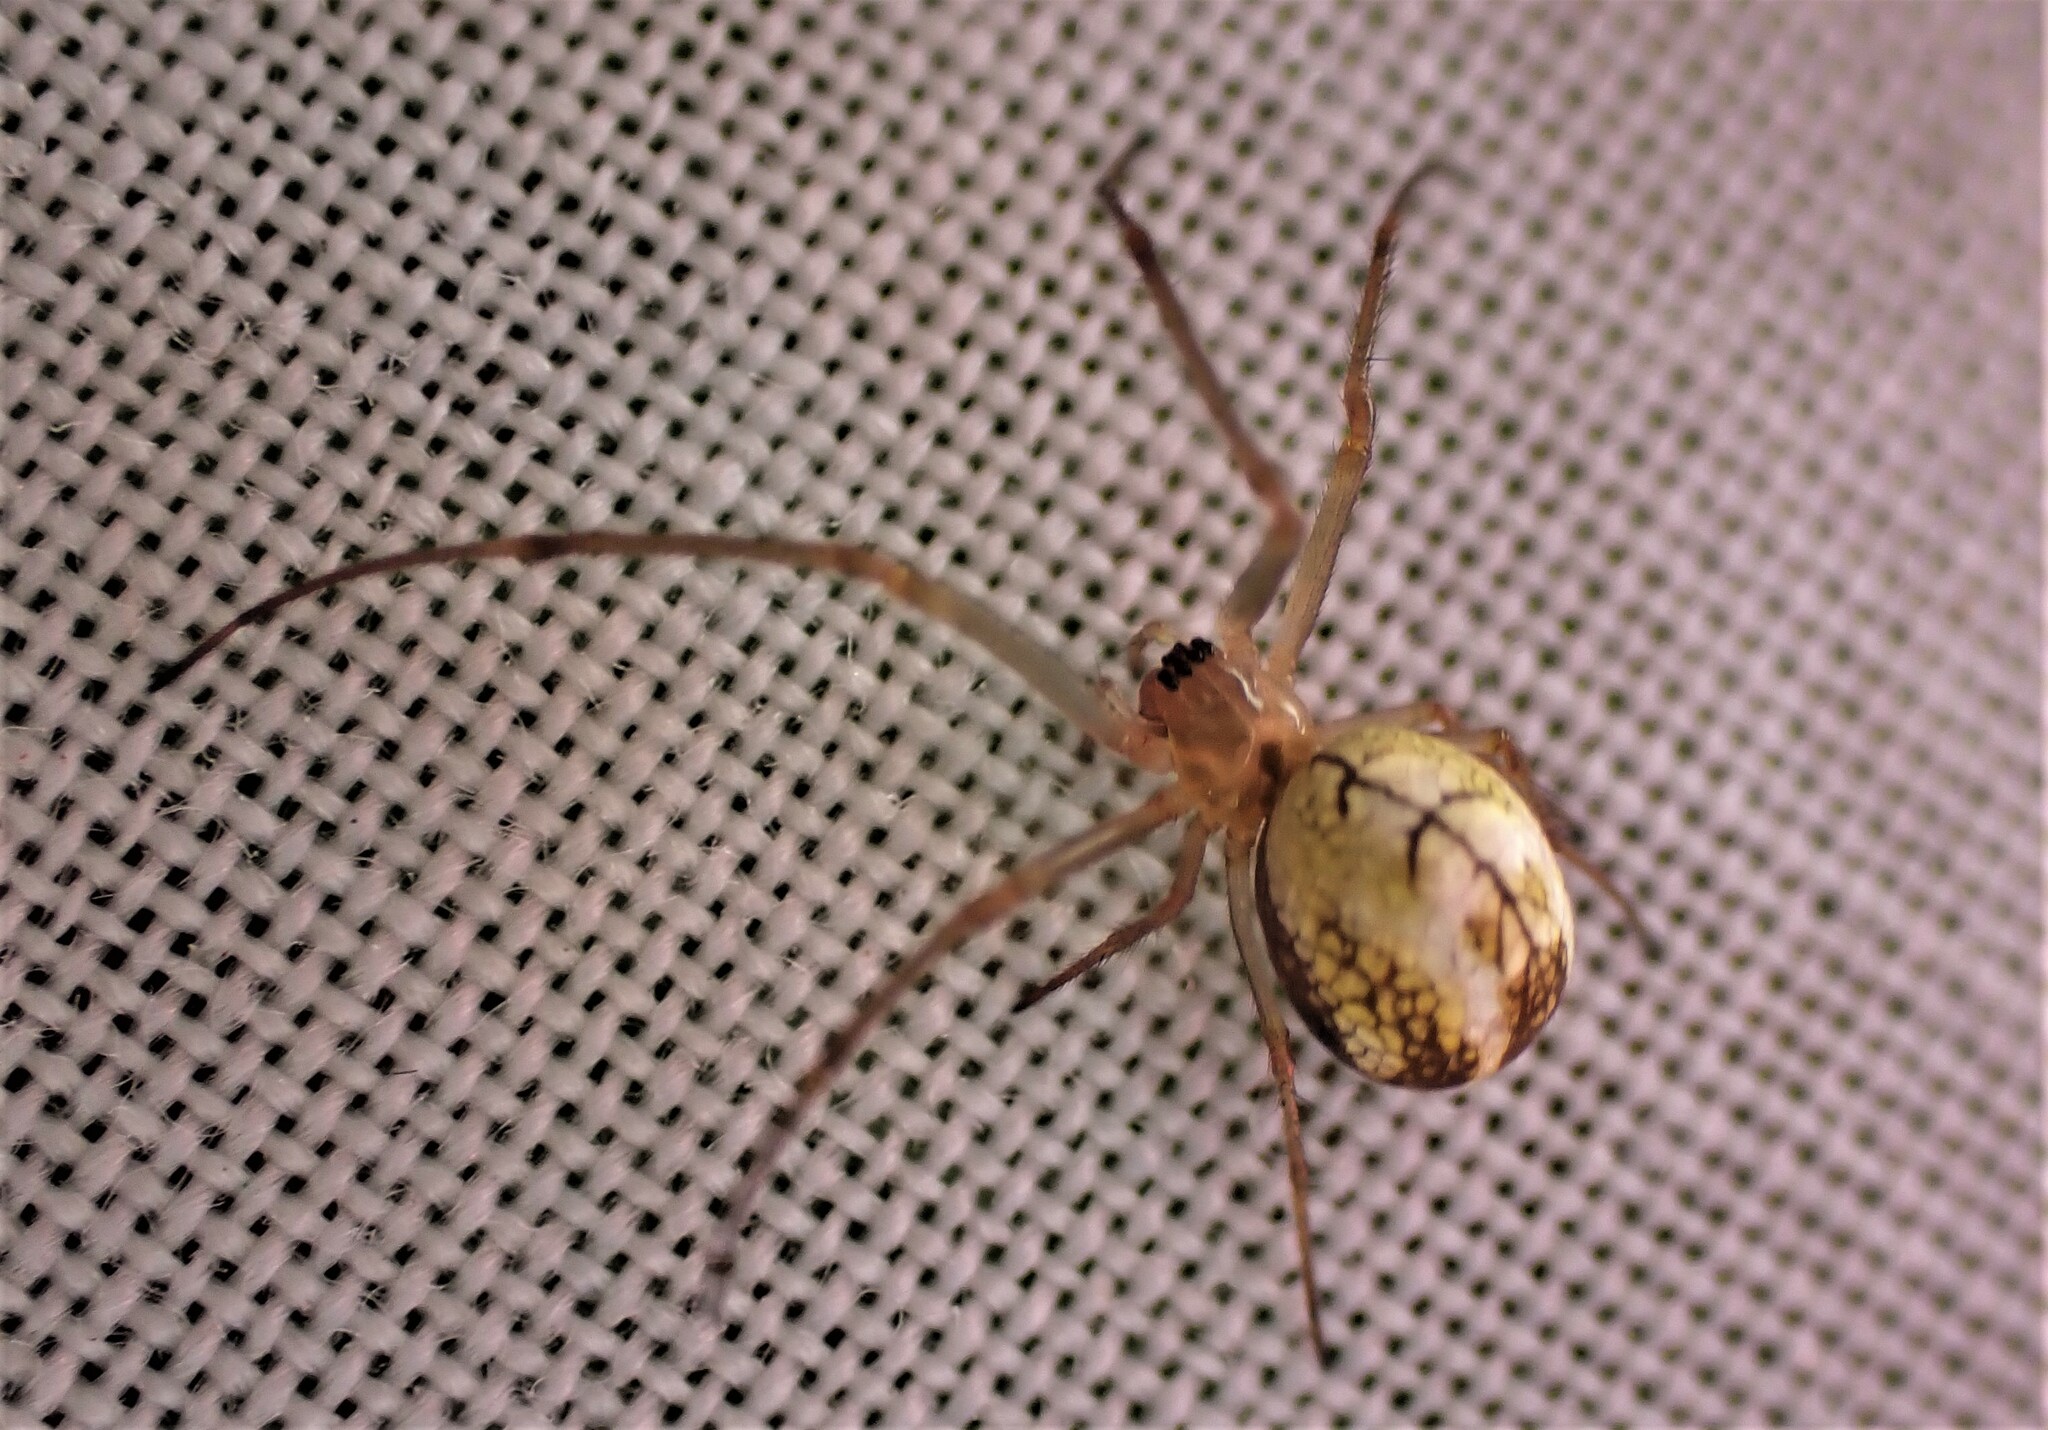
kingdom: Animalia
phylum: Arthropoda
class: Arachnida
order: Araneae
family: Tetragnathidae
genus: Nanometa
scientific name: Nanometa forsteri
